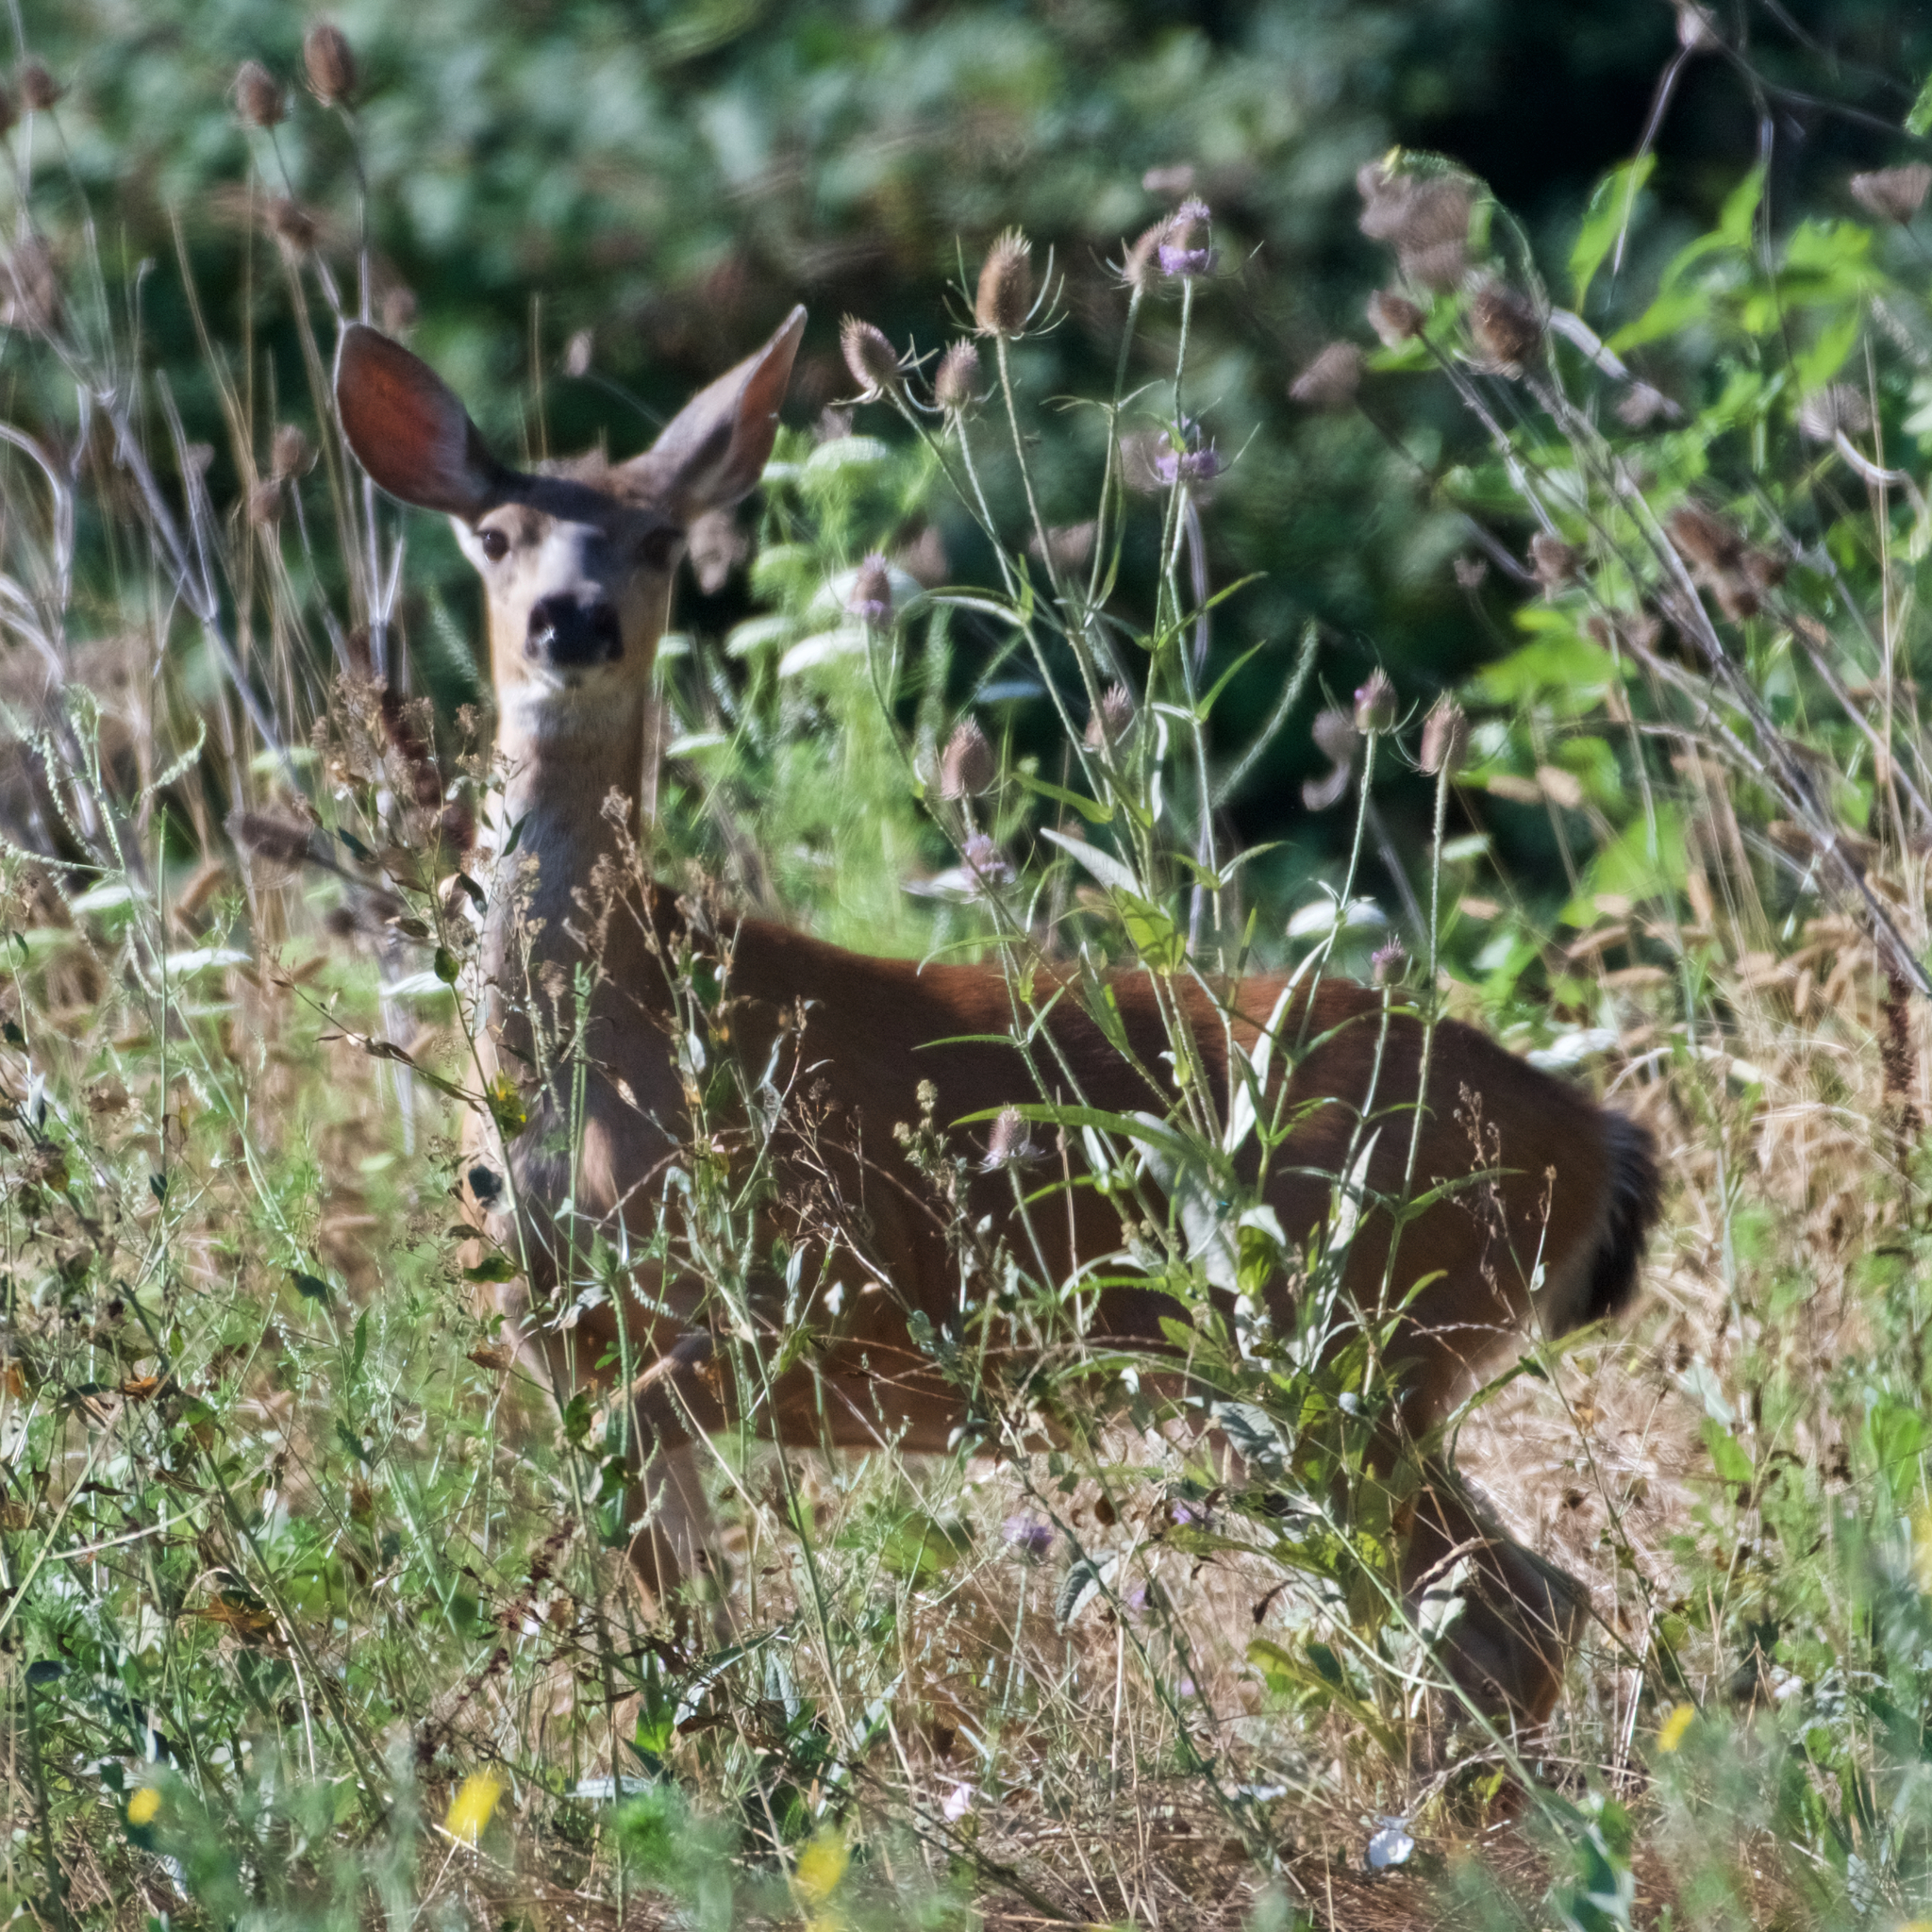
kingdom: Animalia
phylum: Chordata
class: Mammalia
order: Artiodactyla
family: Cervidae
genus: Odocoileus
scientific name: Odocoileus hemionus
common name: Mule deer
